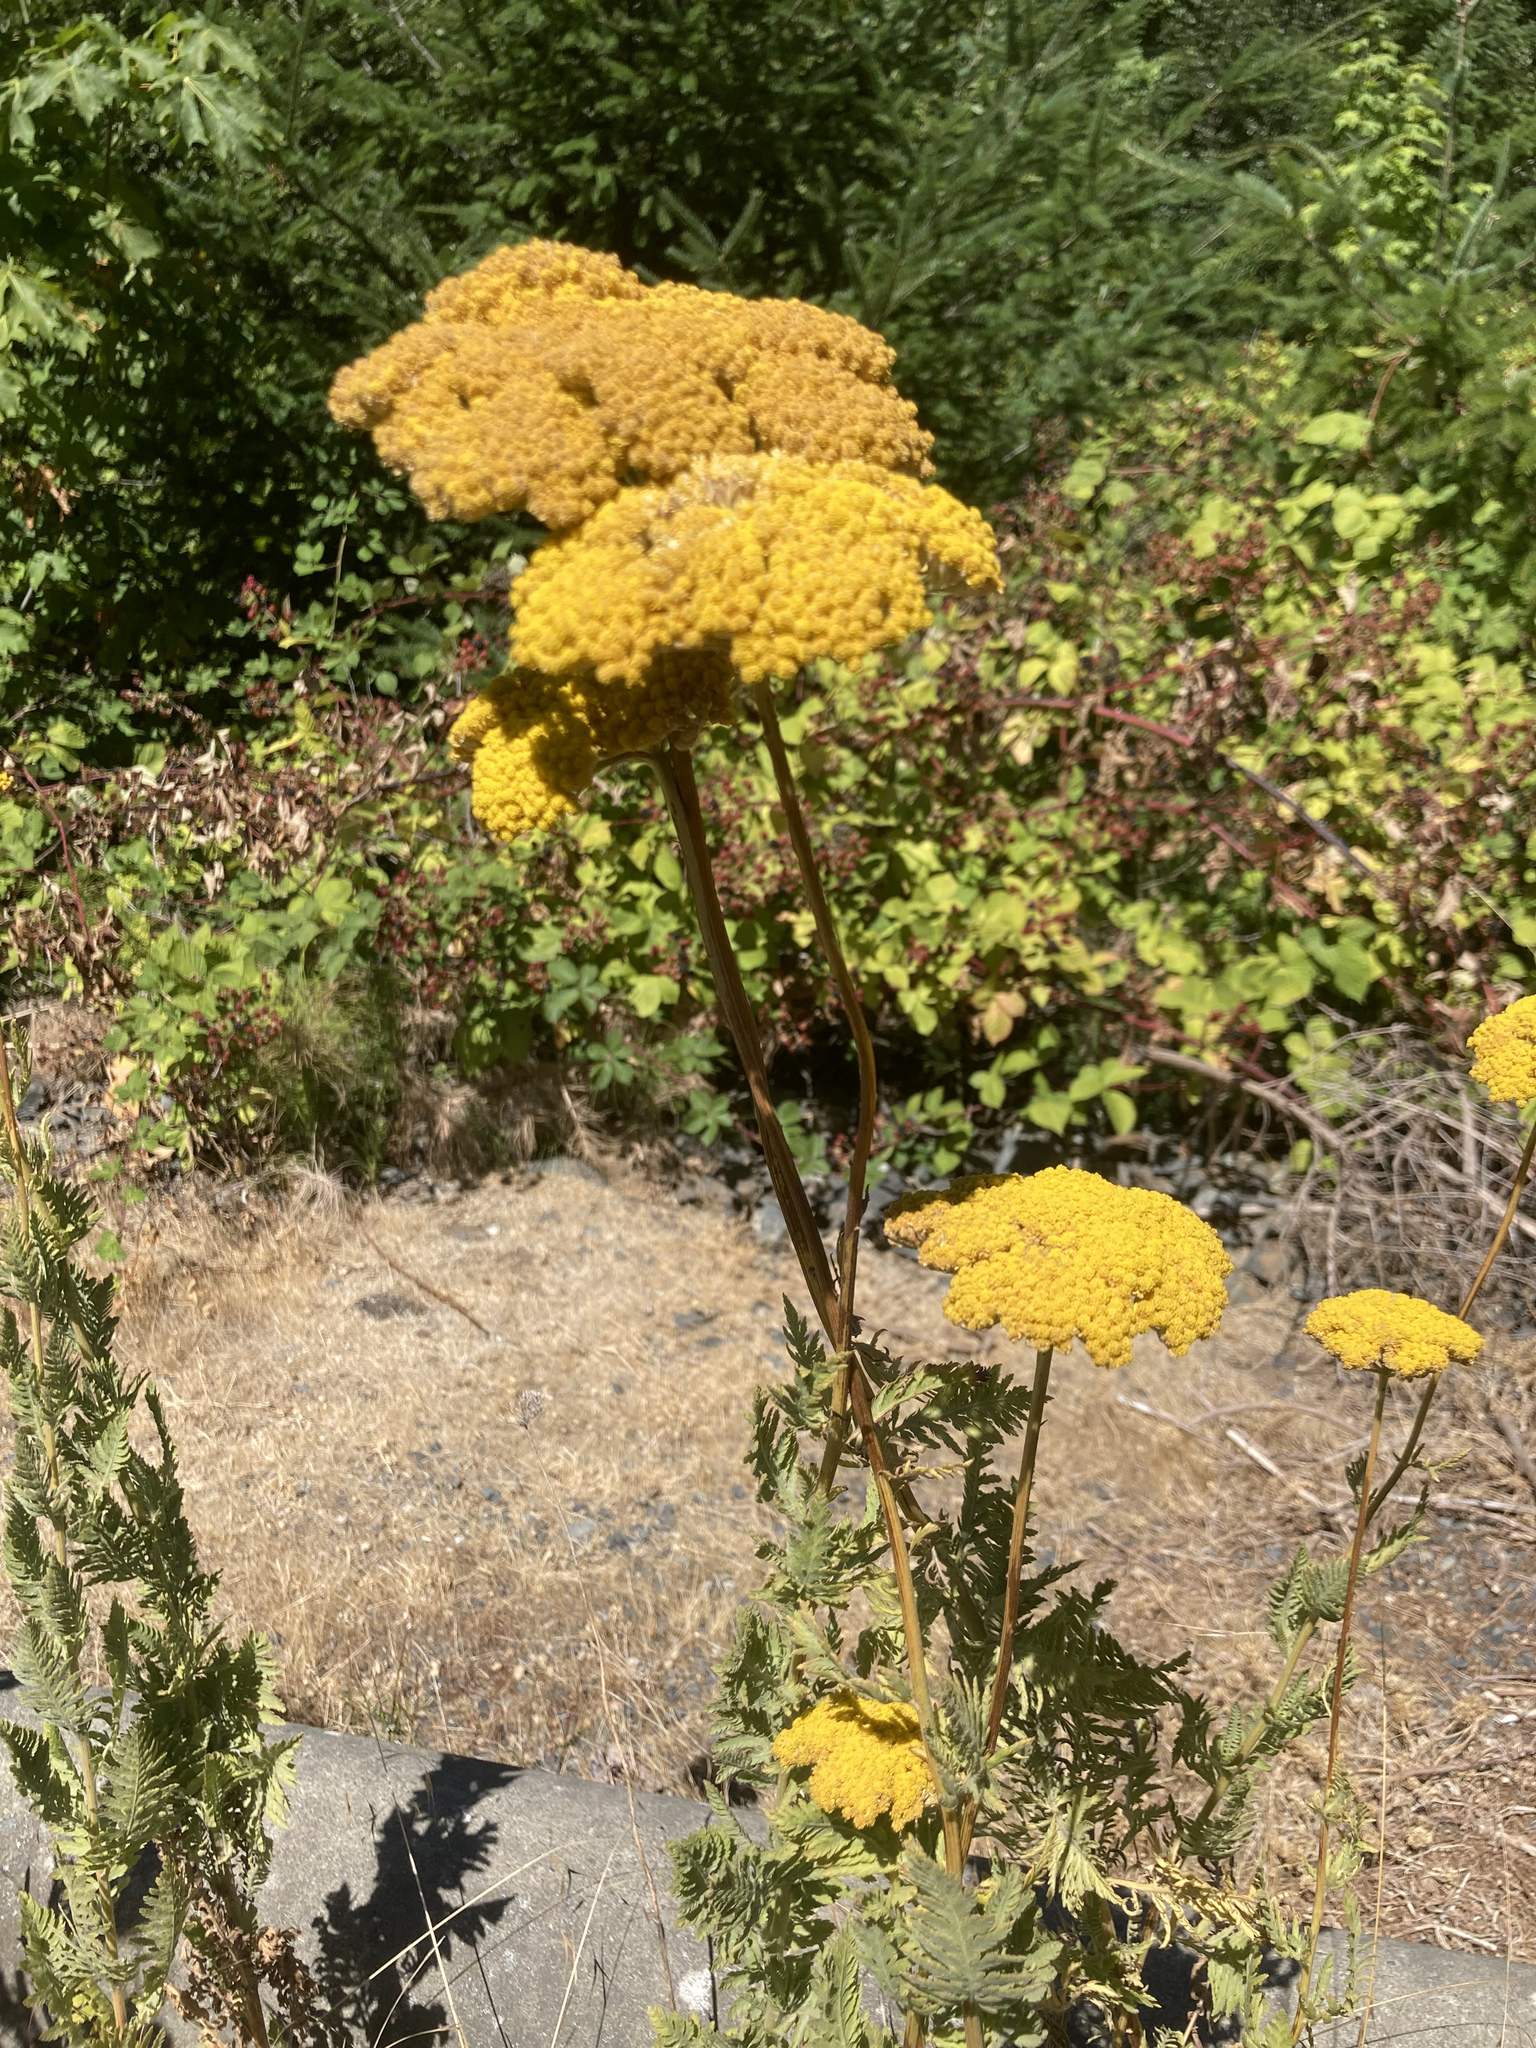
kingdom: Plantae
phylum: Tracheophyta
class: Magnoliopsida
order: Asterales
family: Asteraceae
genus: Achillea
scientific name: Achillea filipendulina
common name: Fernleaf yarrow
